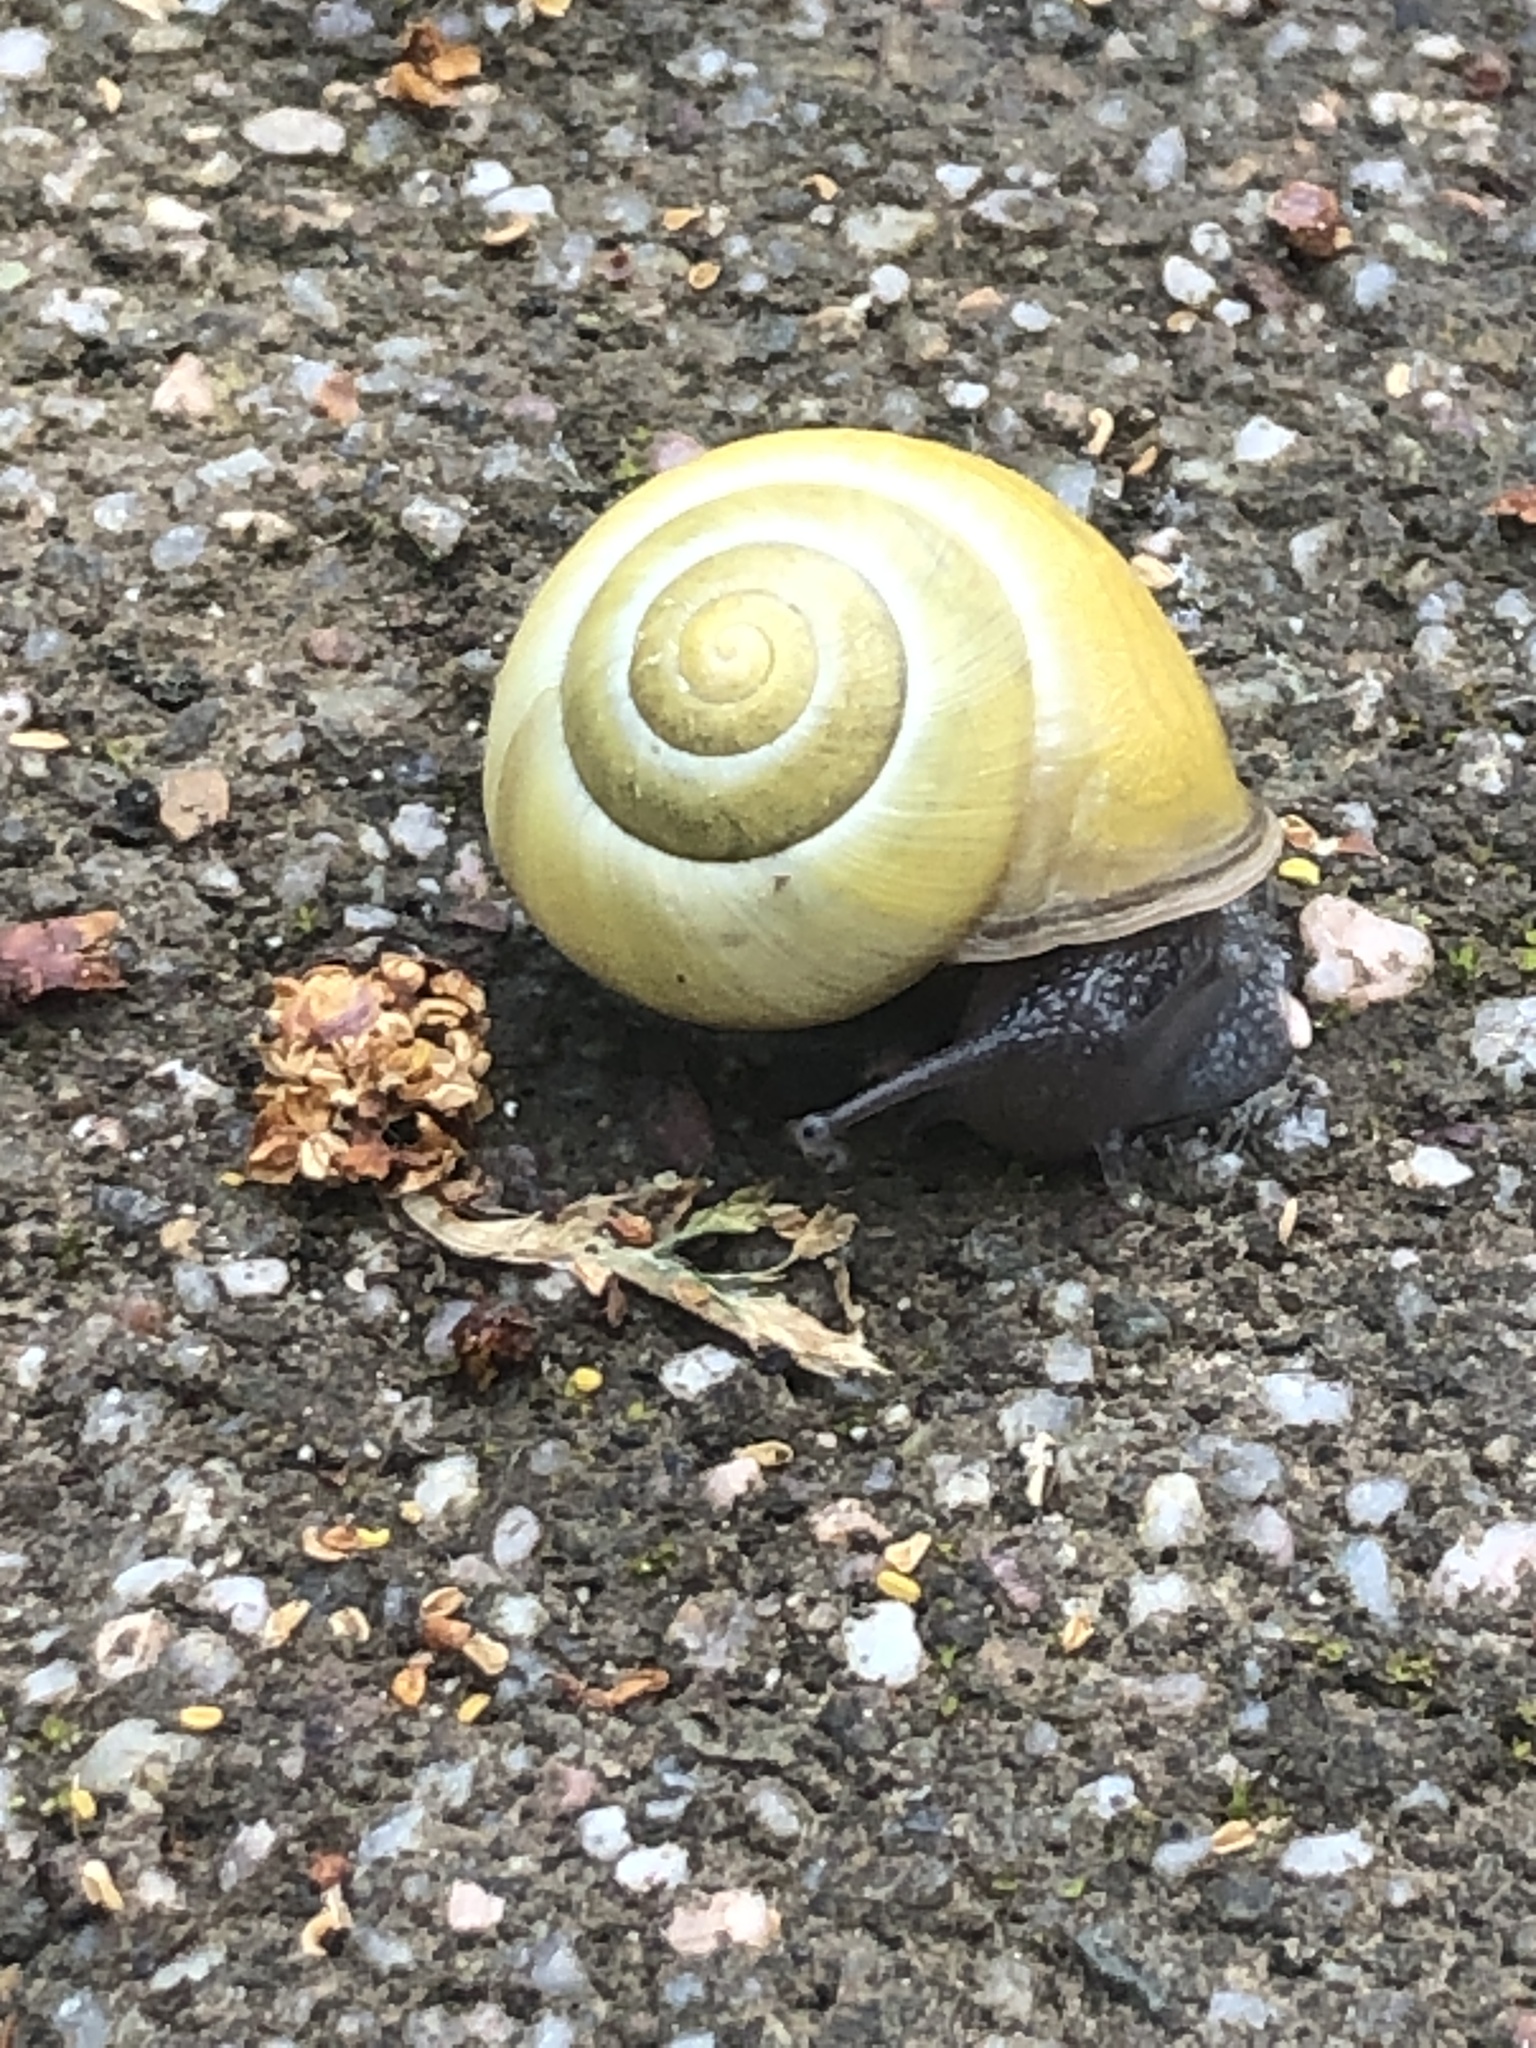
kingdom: Animalia
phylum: Mollusca
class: Gastropoda
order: Stylommatophora
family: Helicidae
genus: Cepaea
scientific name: Cepaea nemoralis
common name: Grovesnail
